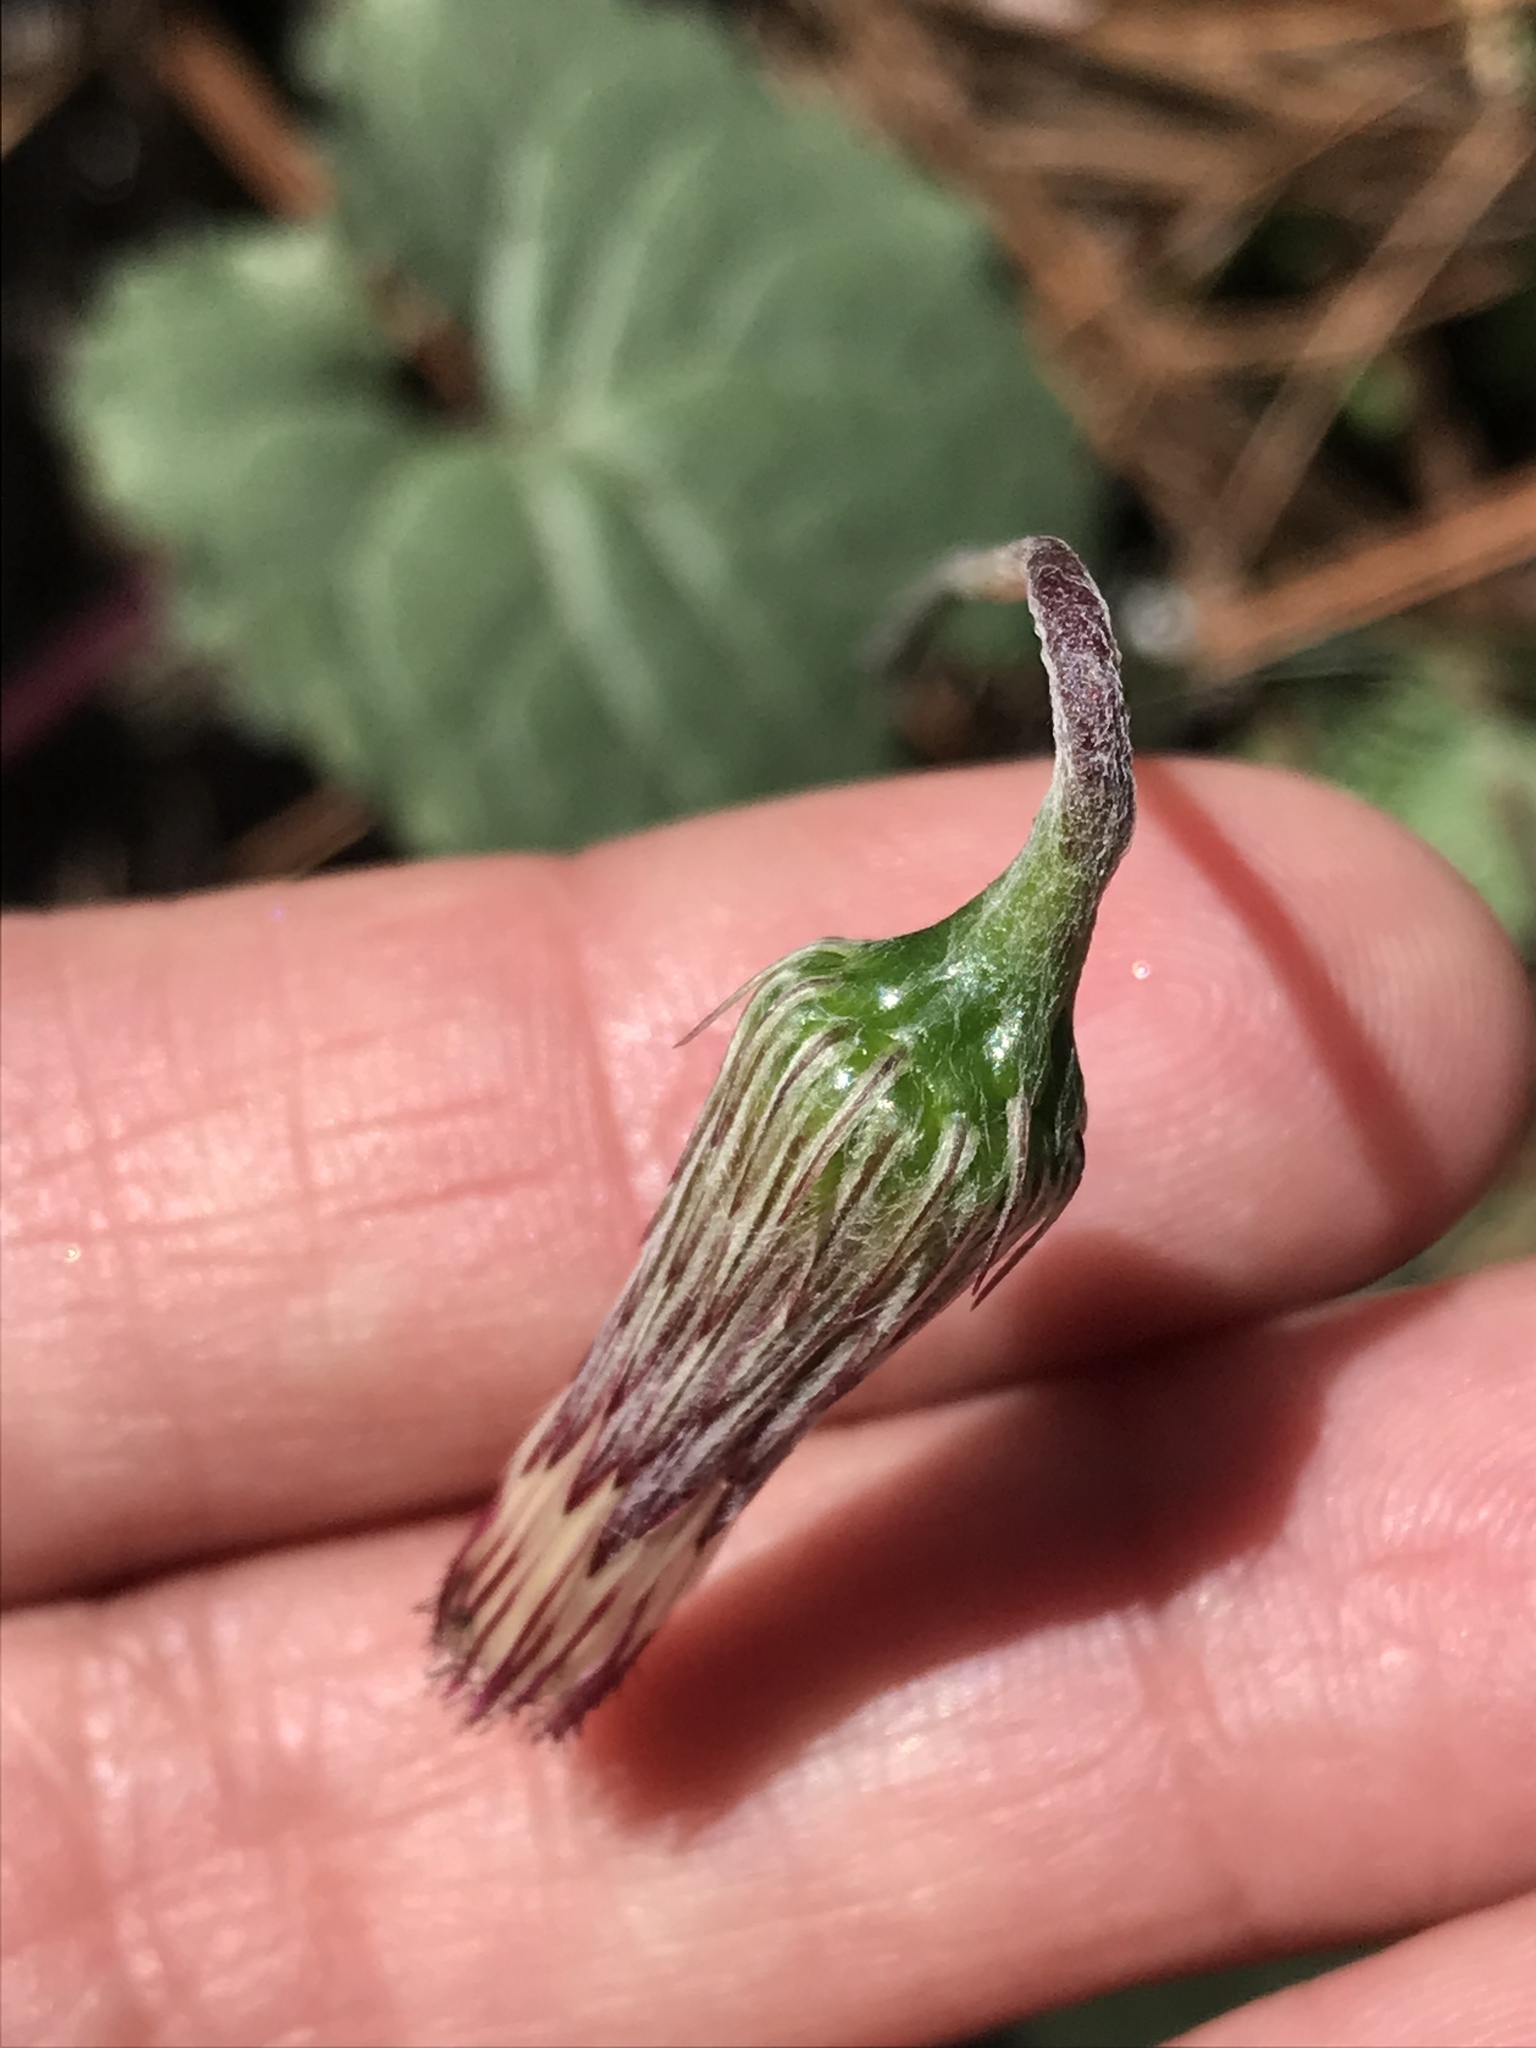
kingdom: Plantae
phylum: Tracheophyta
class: Magnoliopsida
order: Asterales
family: Asteraceae
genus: Chaptalia
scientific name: Chaptalia texana
